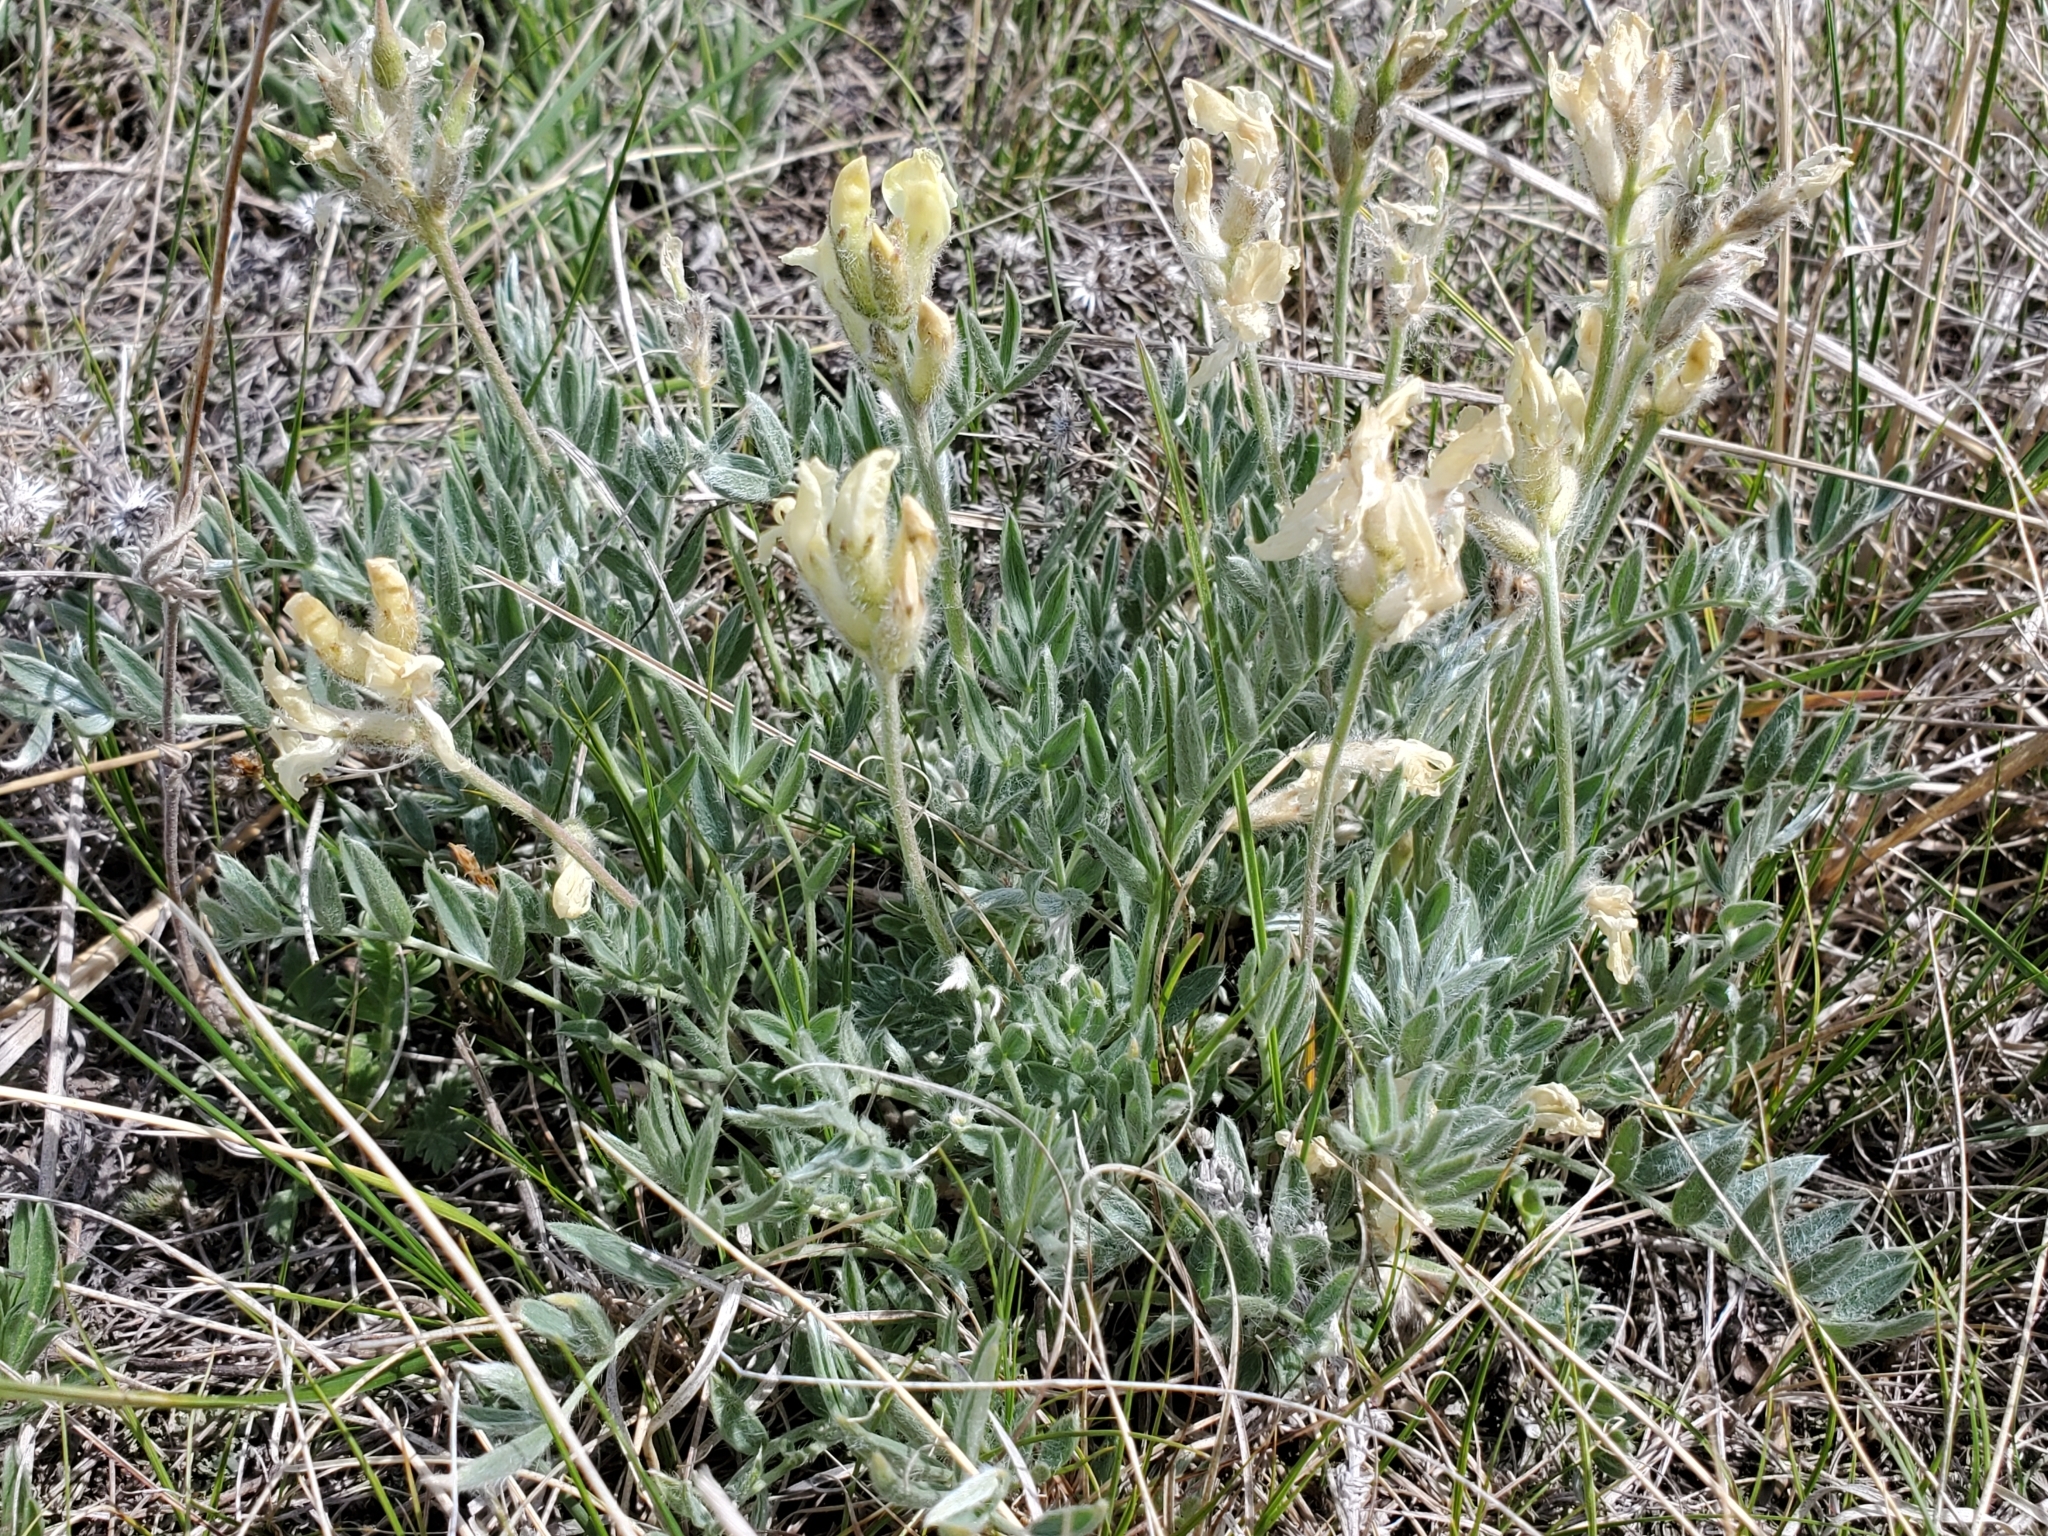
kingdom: Plantae
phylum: Tracheophyta
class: Magnoliopsida
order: Fabales
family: Fabaceae
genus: Oxytropis
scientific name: Oxytropis sericea
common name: Silky locoweed
